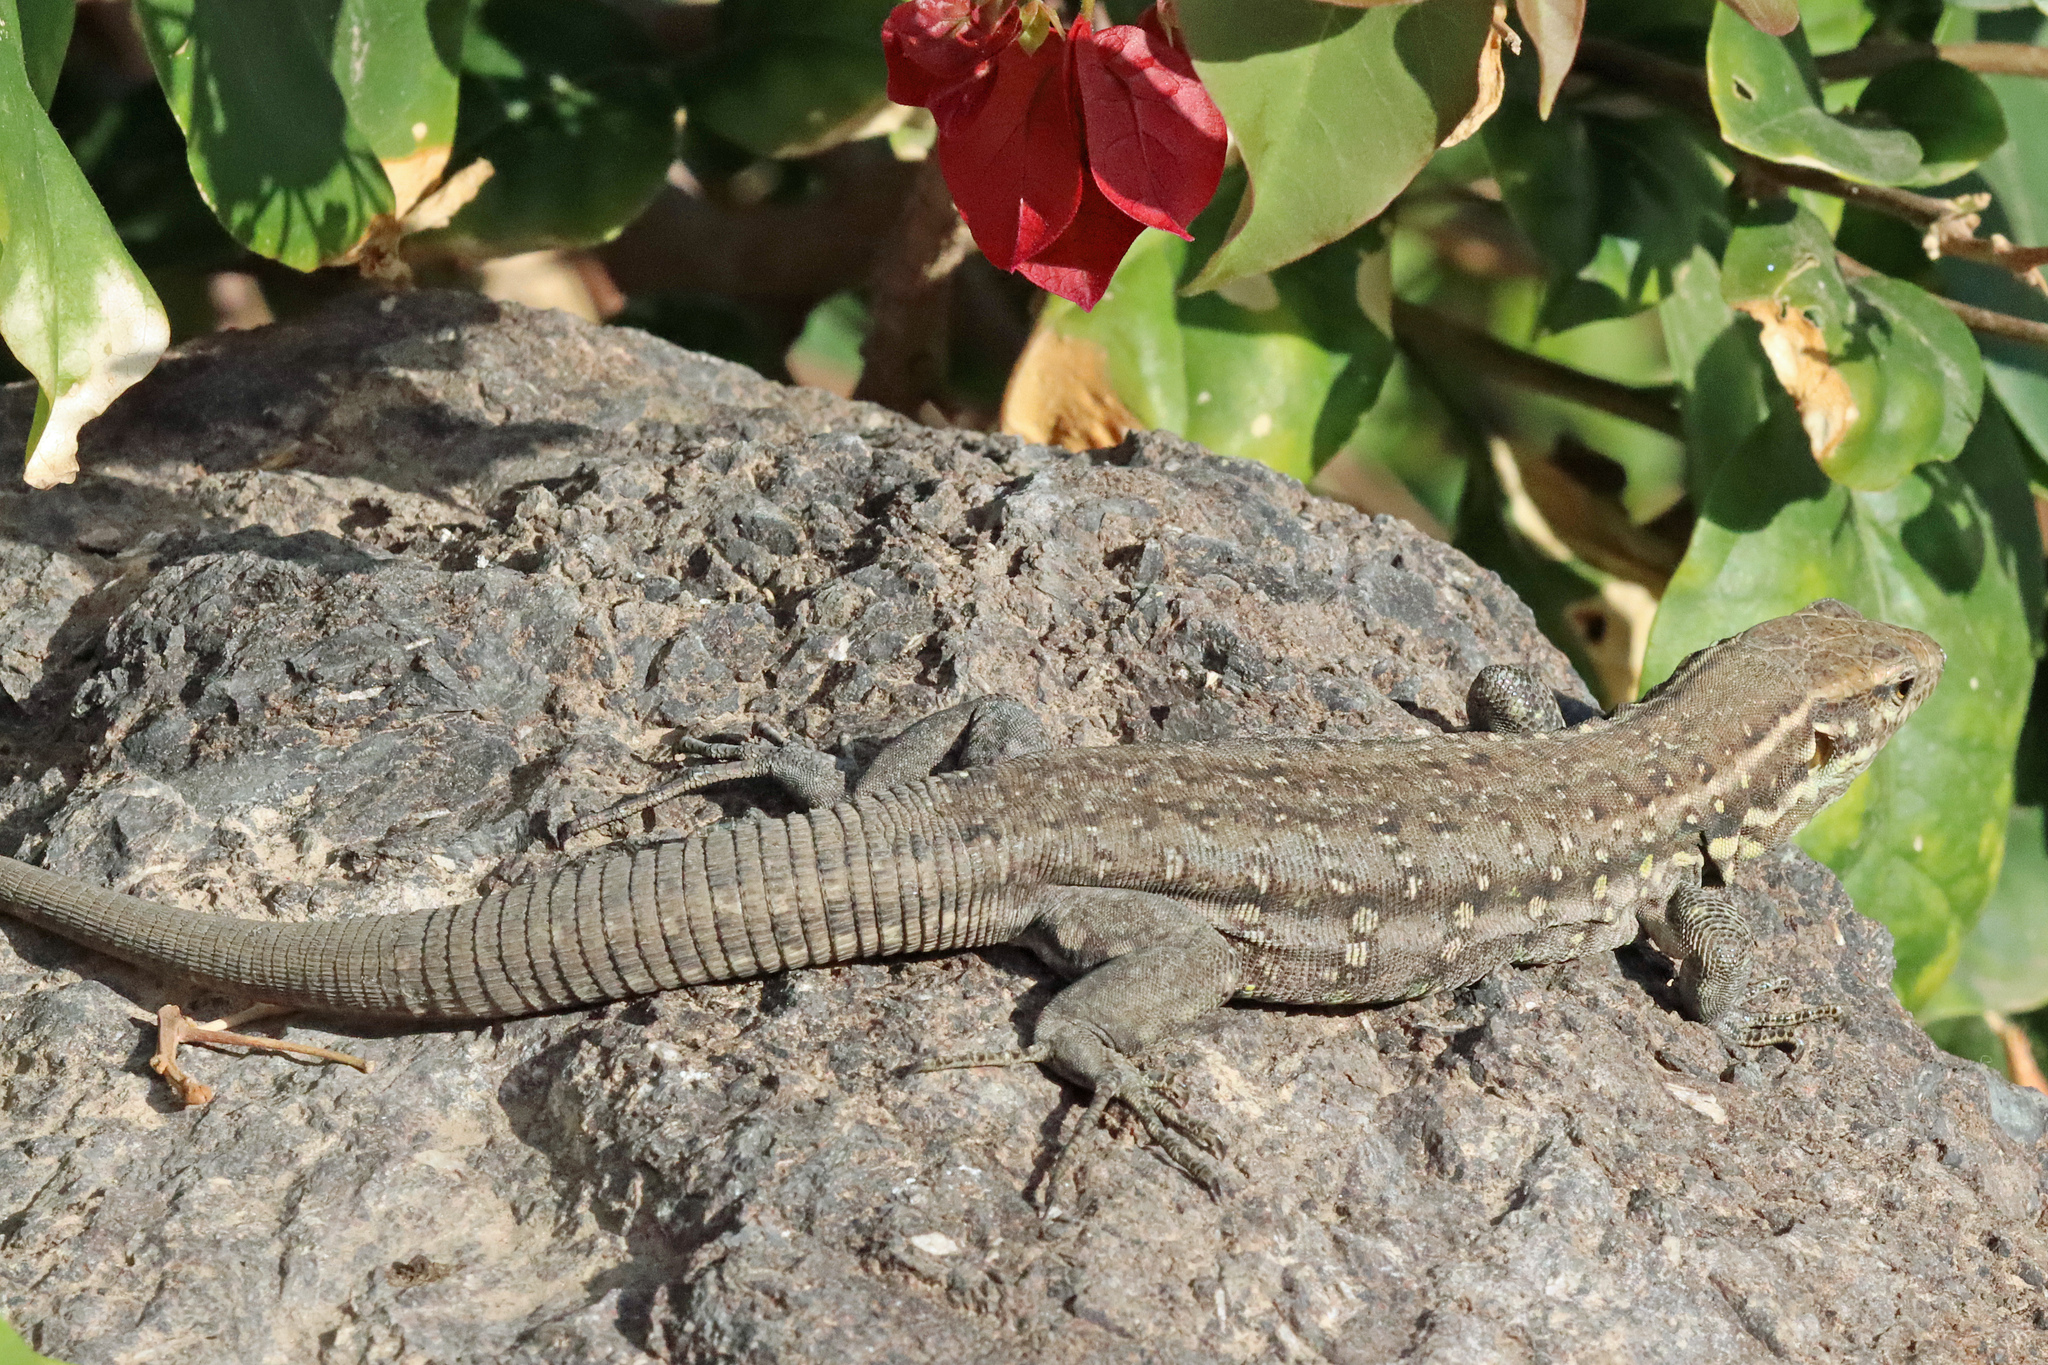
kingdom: Animalia
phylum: Chordata
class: Squamata
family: Lacertidae
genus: Gallotia
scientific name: Gallotia galloti
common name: Gallot's lizard
